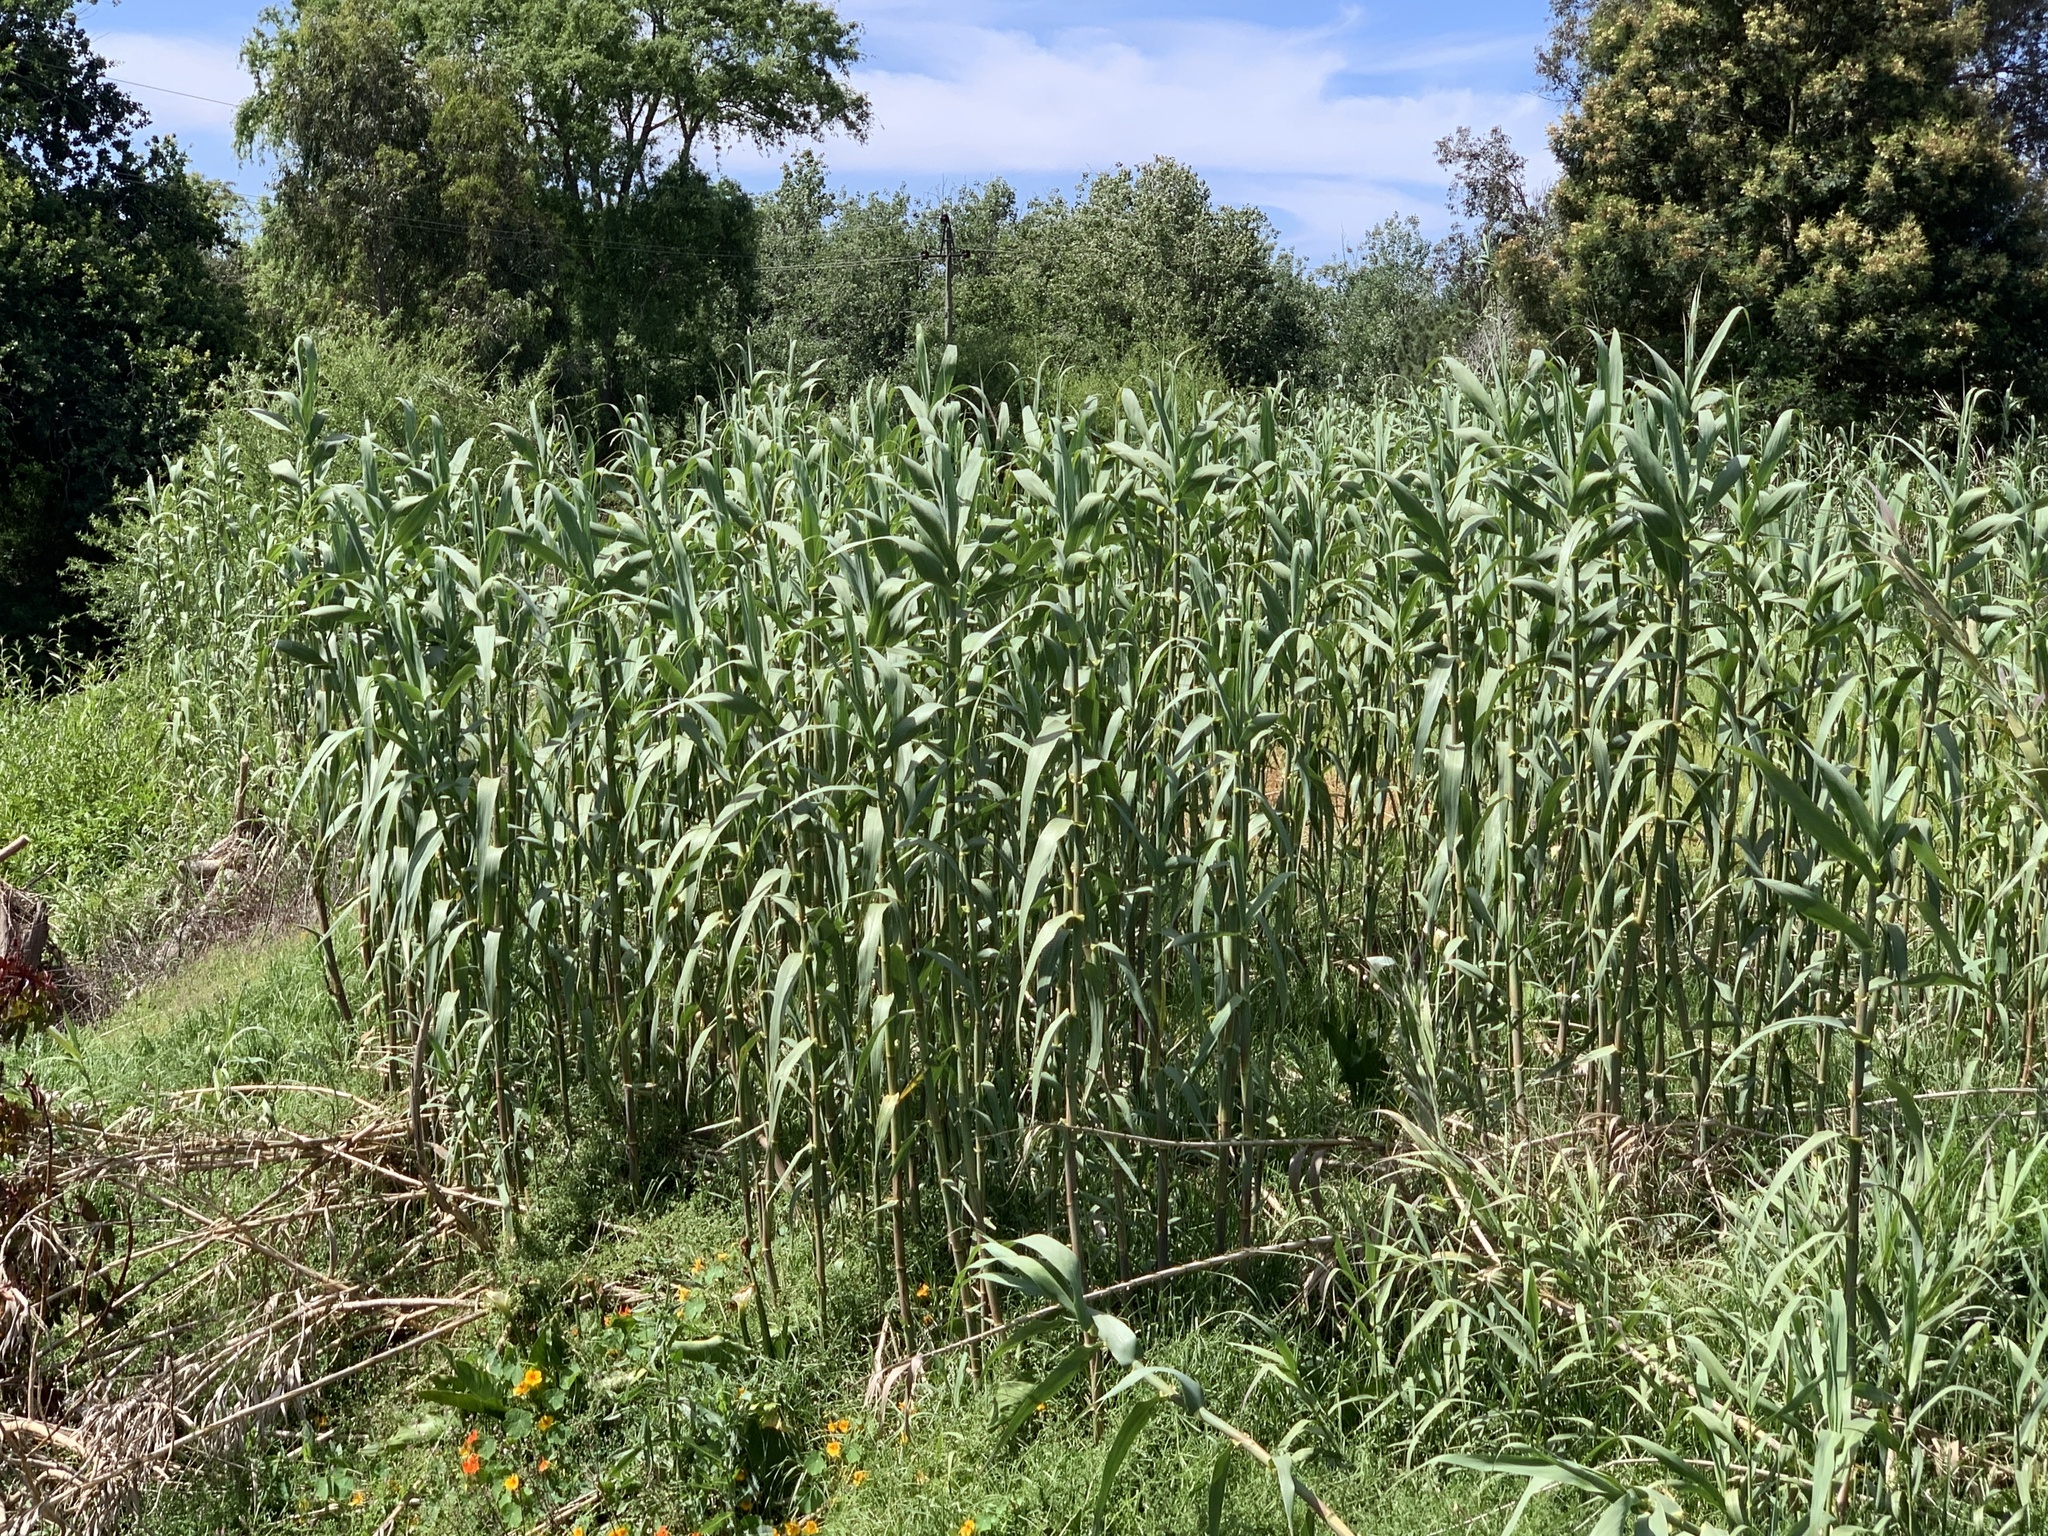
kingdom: Plantae
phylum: Tracheophyta
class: Liliopsida
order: Poales
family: Poaceae
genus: Arundo
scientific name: Arundo donax
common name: Giant reed
